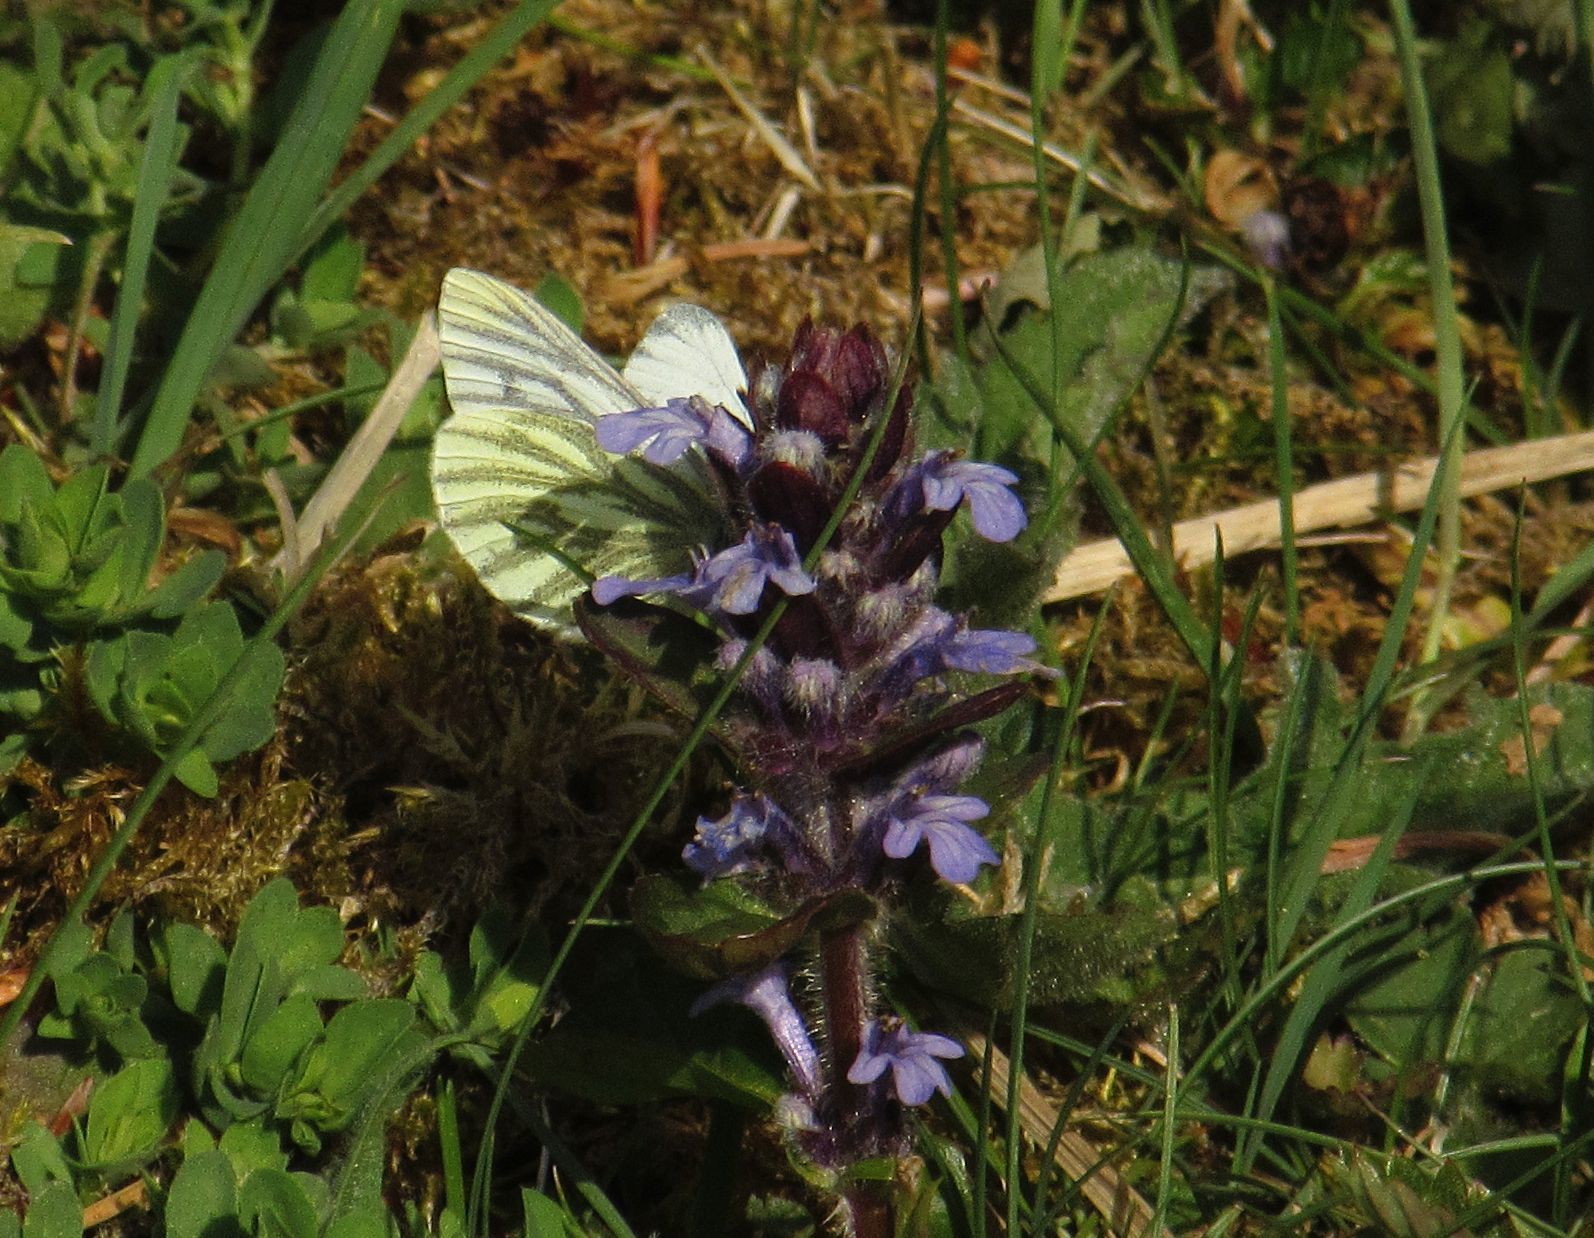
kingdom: Animalia
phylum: Arthropoda
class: Insecta
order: Lepidoptera
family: Pieridae
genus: Pieris
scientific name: Pieris napi
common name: Green-veined white
